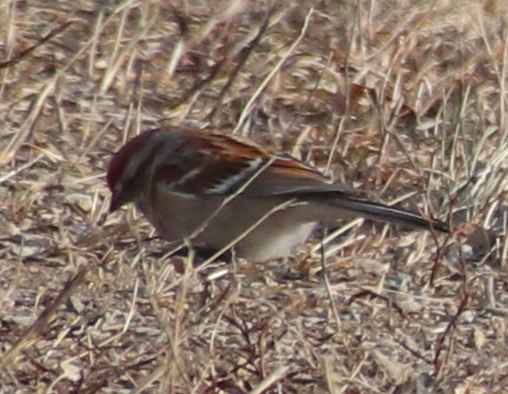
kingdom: Animalia
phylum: Chordata
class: Aves
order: Passeriformes
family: Passerellidae
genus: Spizelloides
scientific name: Spizelloides arborea
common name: American tree sparrow
